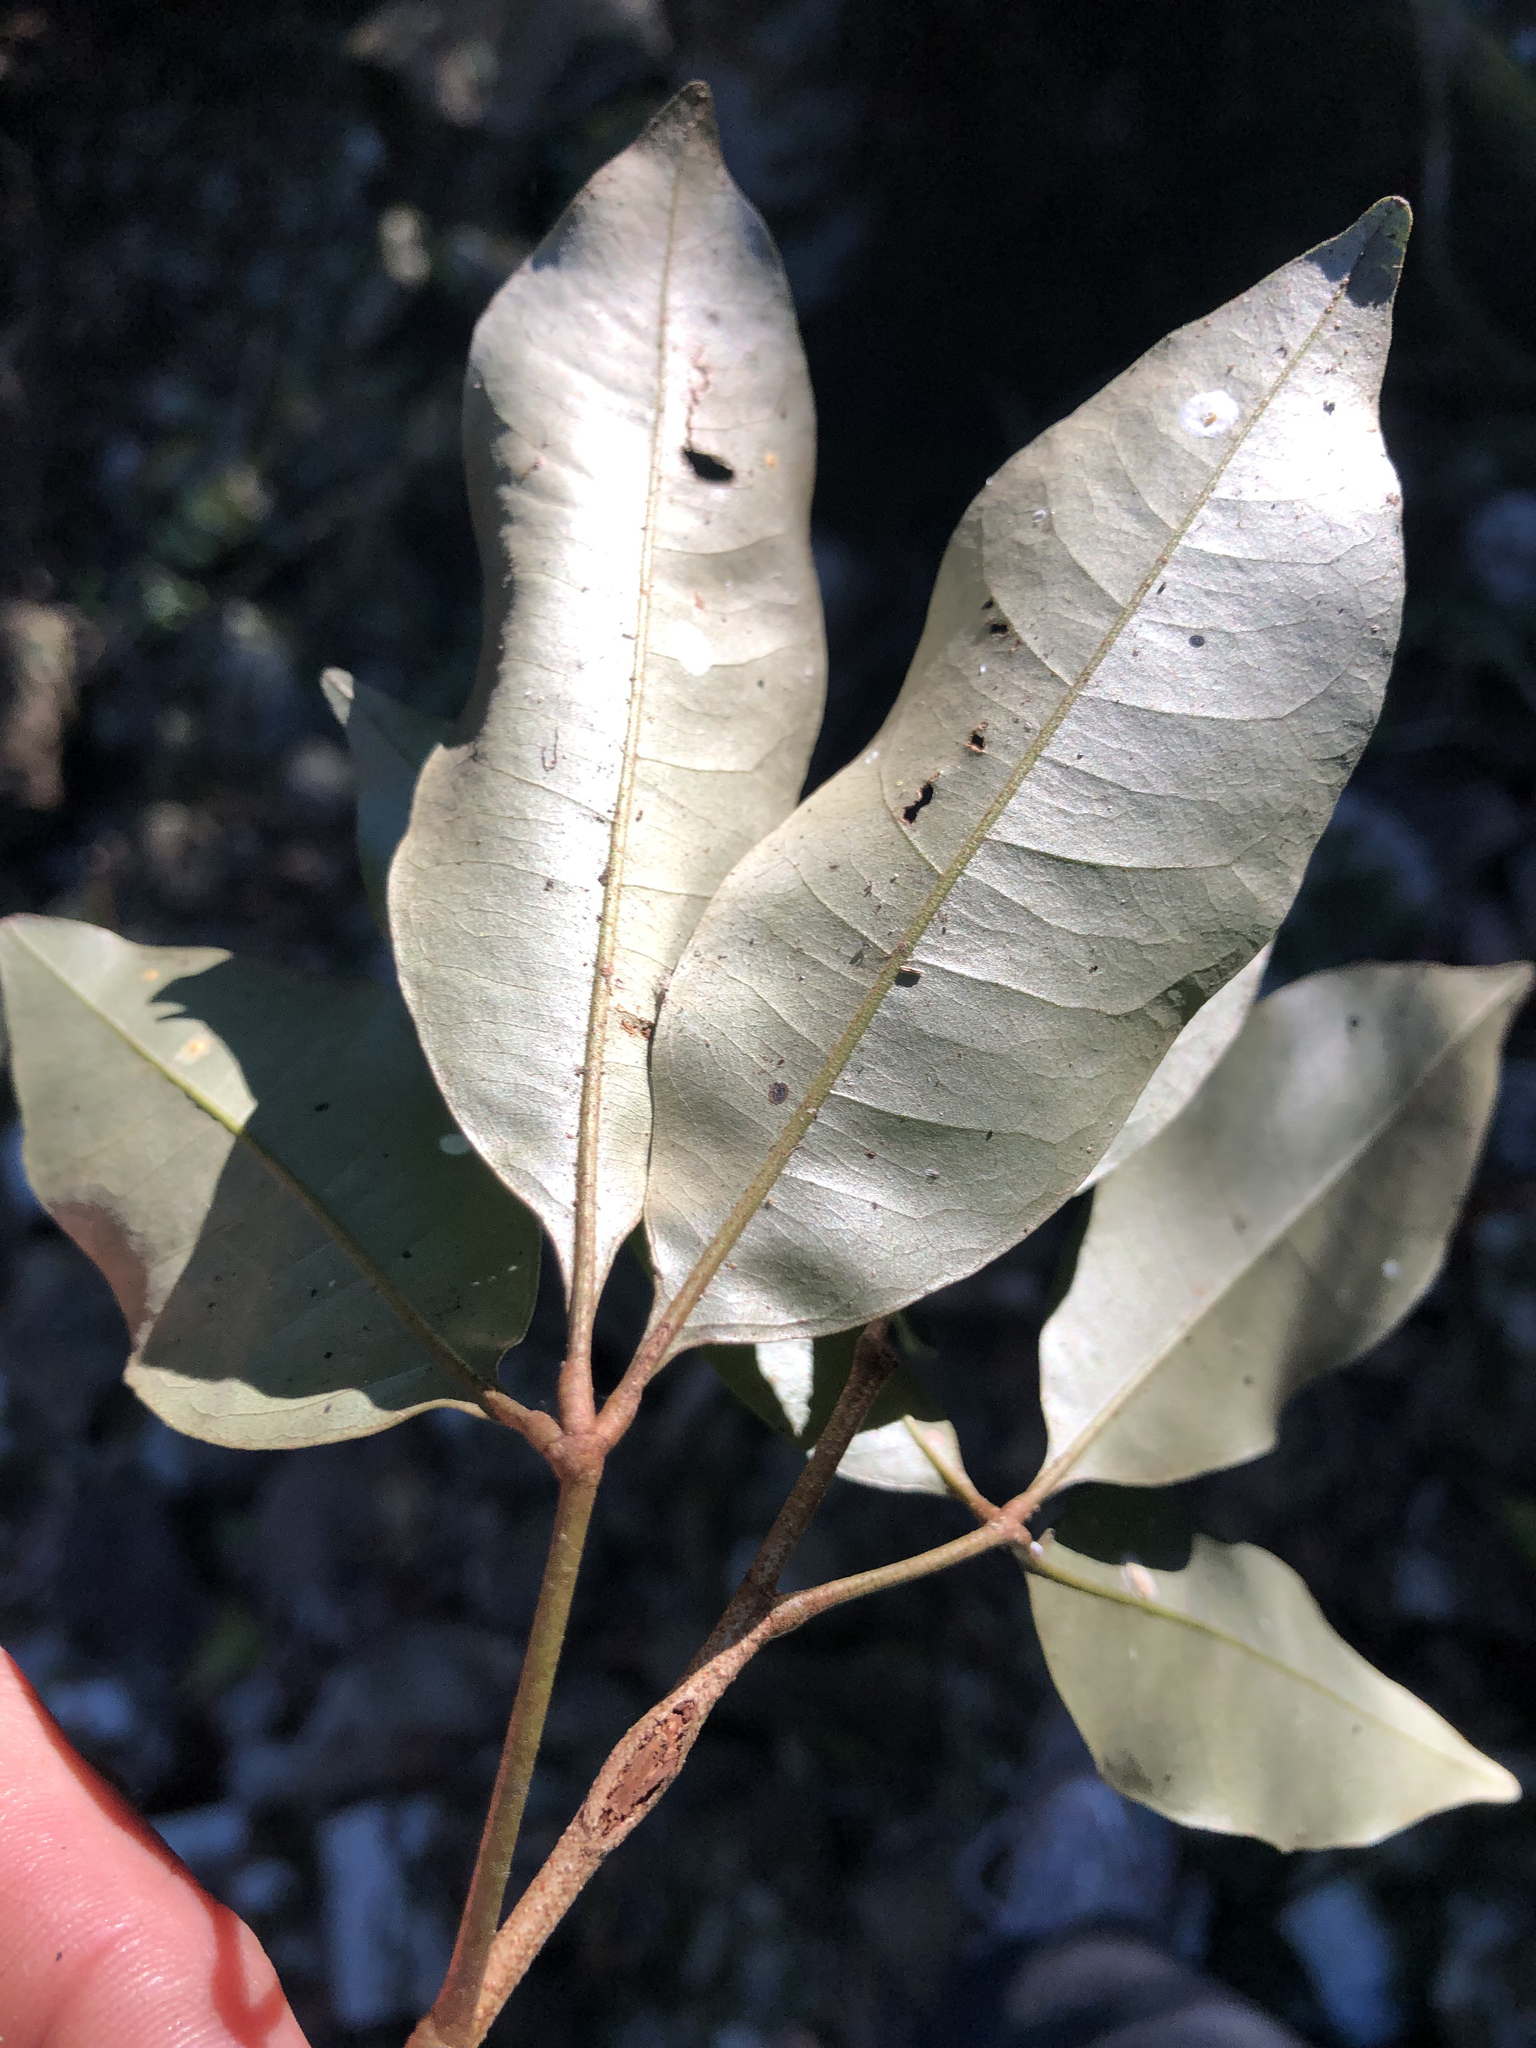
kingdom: Plantae
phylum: Tracheophyta
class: Magnoliopsida
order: Malvales
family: Malvaceae
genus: Argyrodendron
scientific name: Argyrodendron trifoliolatum
